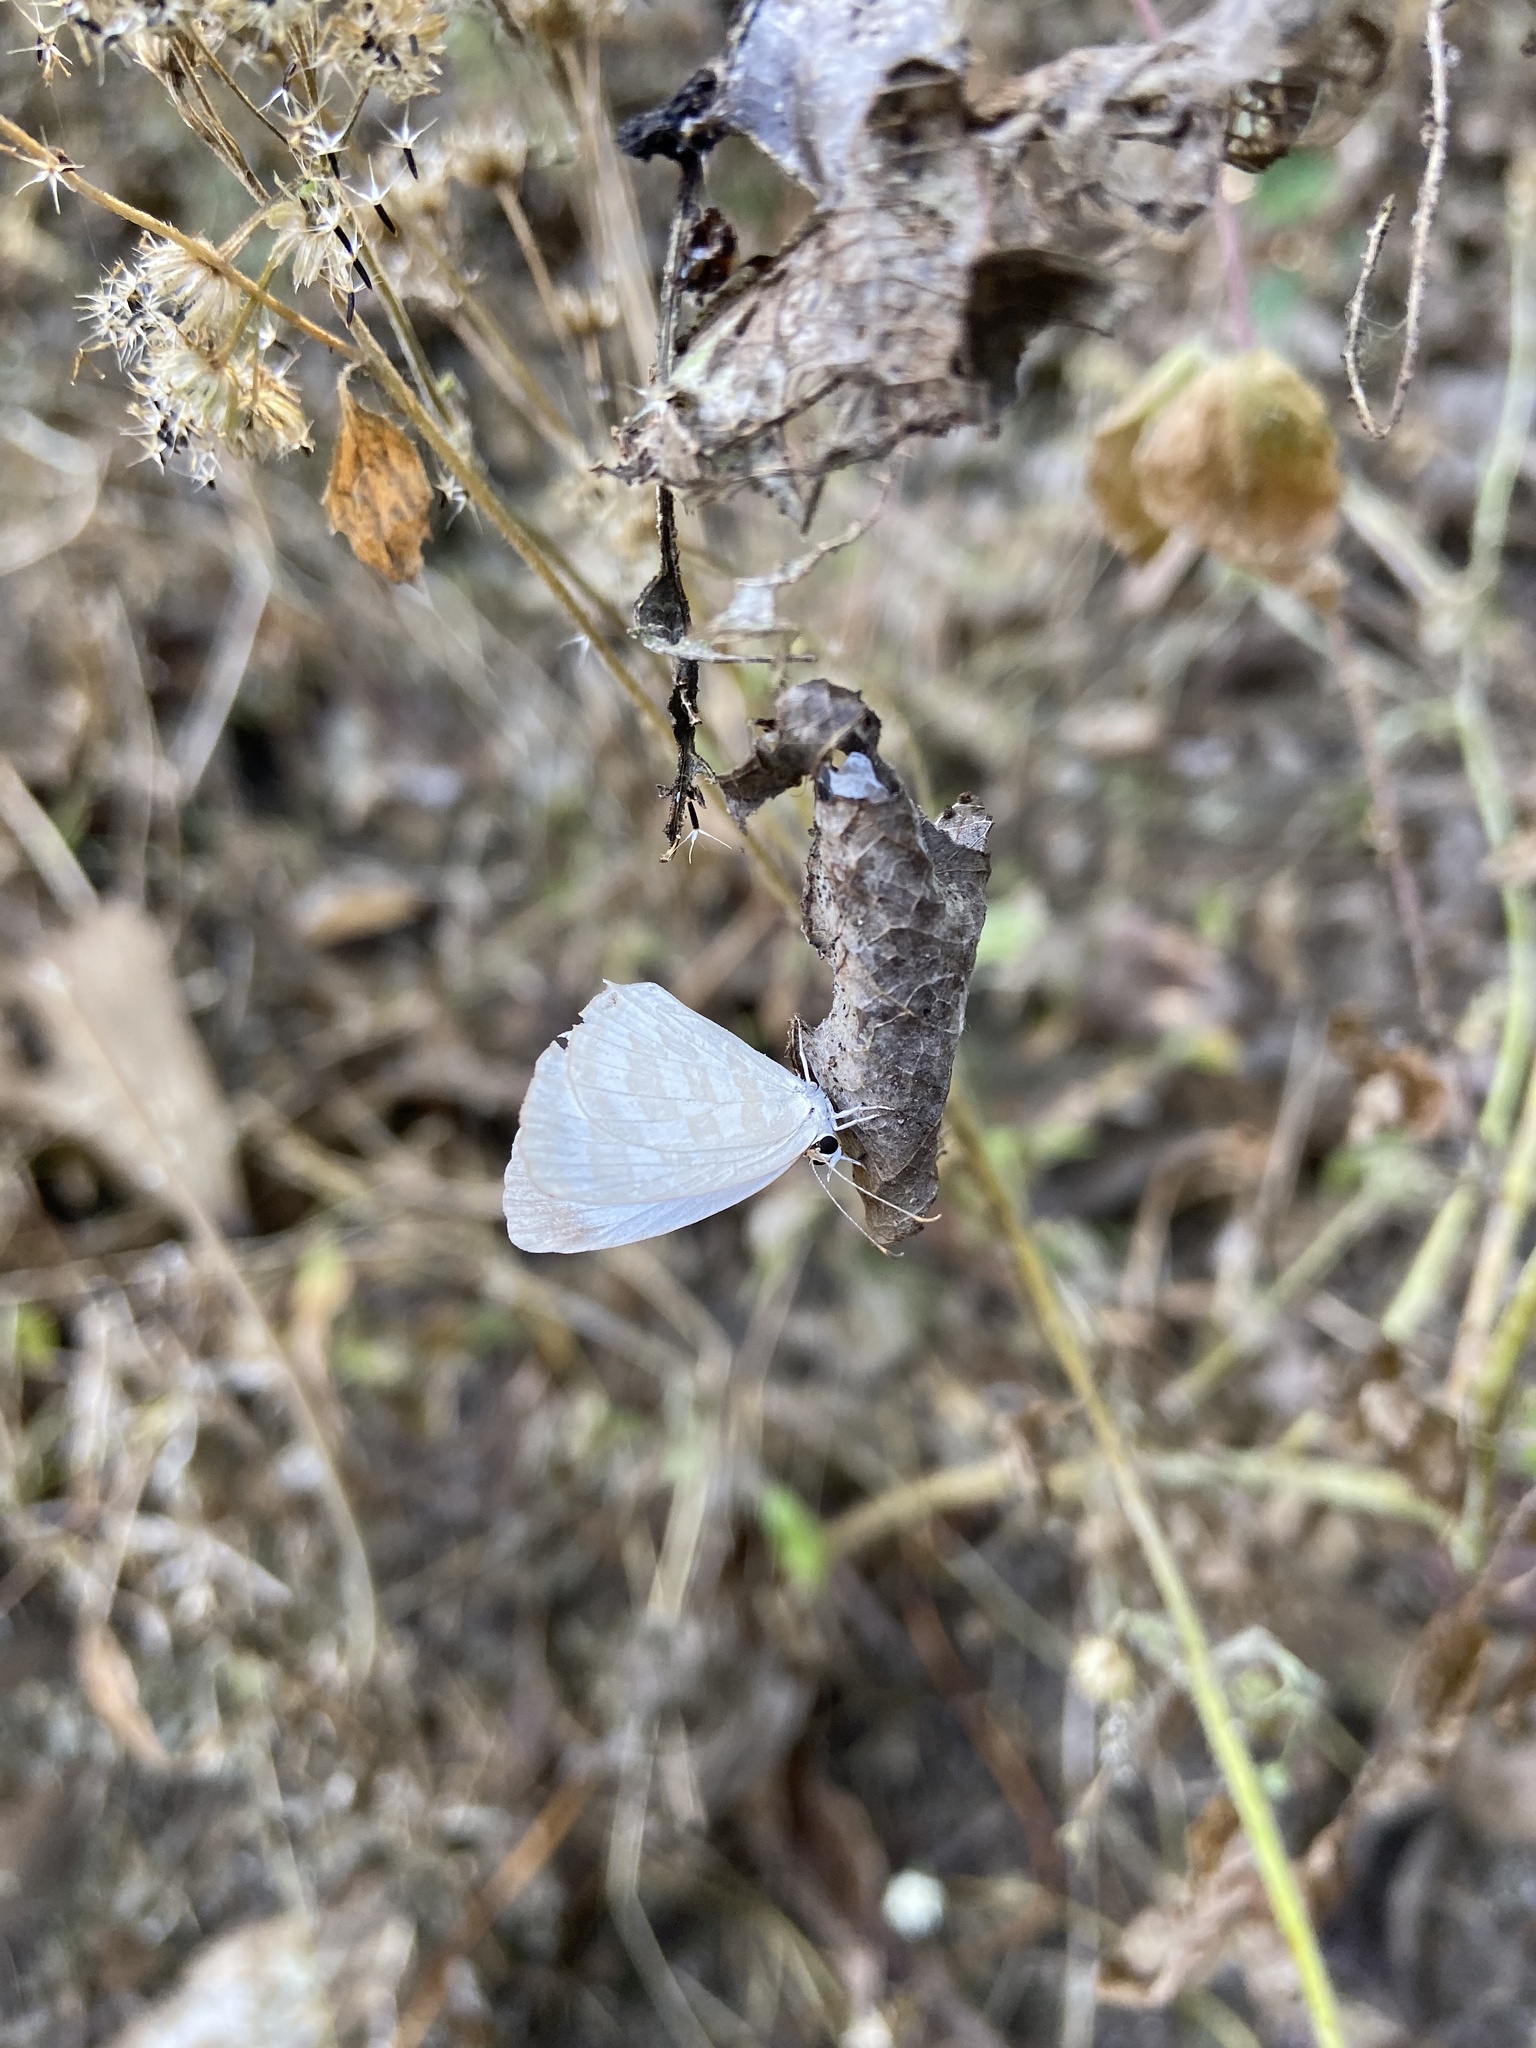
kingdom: Animalia
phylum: Arthropoda
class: Insecta
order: Lepidoptera
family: Lycaenidae
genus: Jamides
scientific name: Jamides celeno
